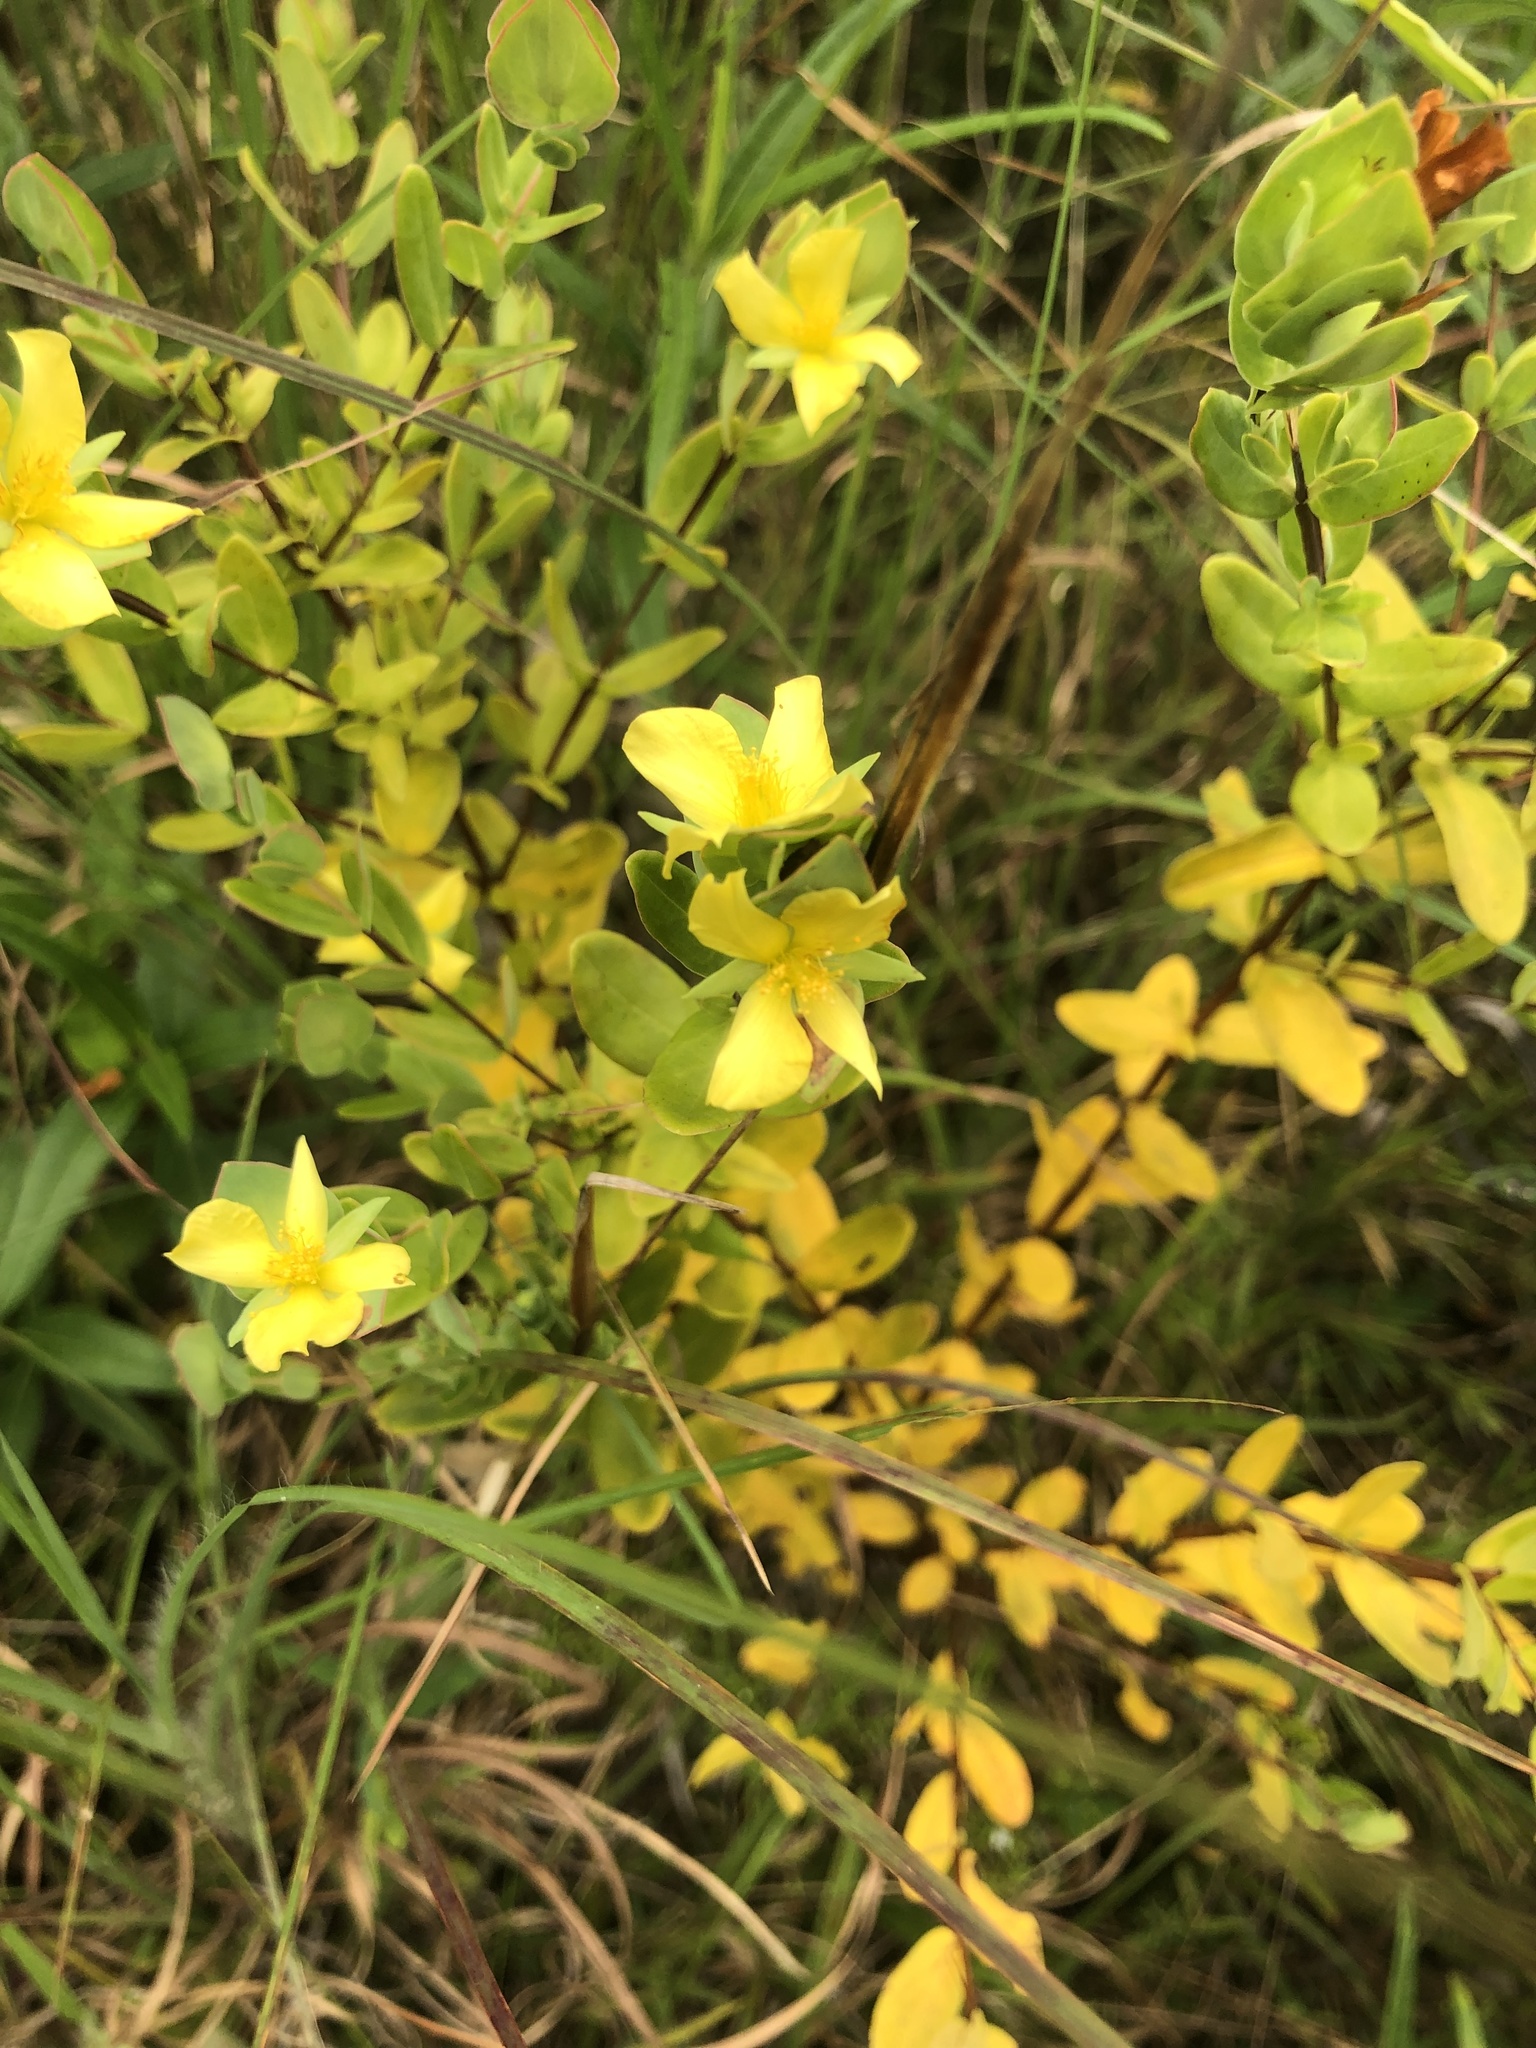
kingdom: Plantae
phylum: Tracheophyta
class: Magnoliopsida
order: Malpighiales
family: Hypericaceae
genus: Hypericum
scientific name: Hypericum crux-andreae
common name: St.-peter's-wort
